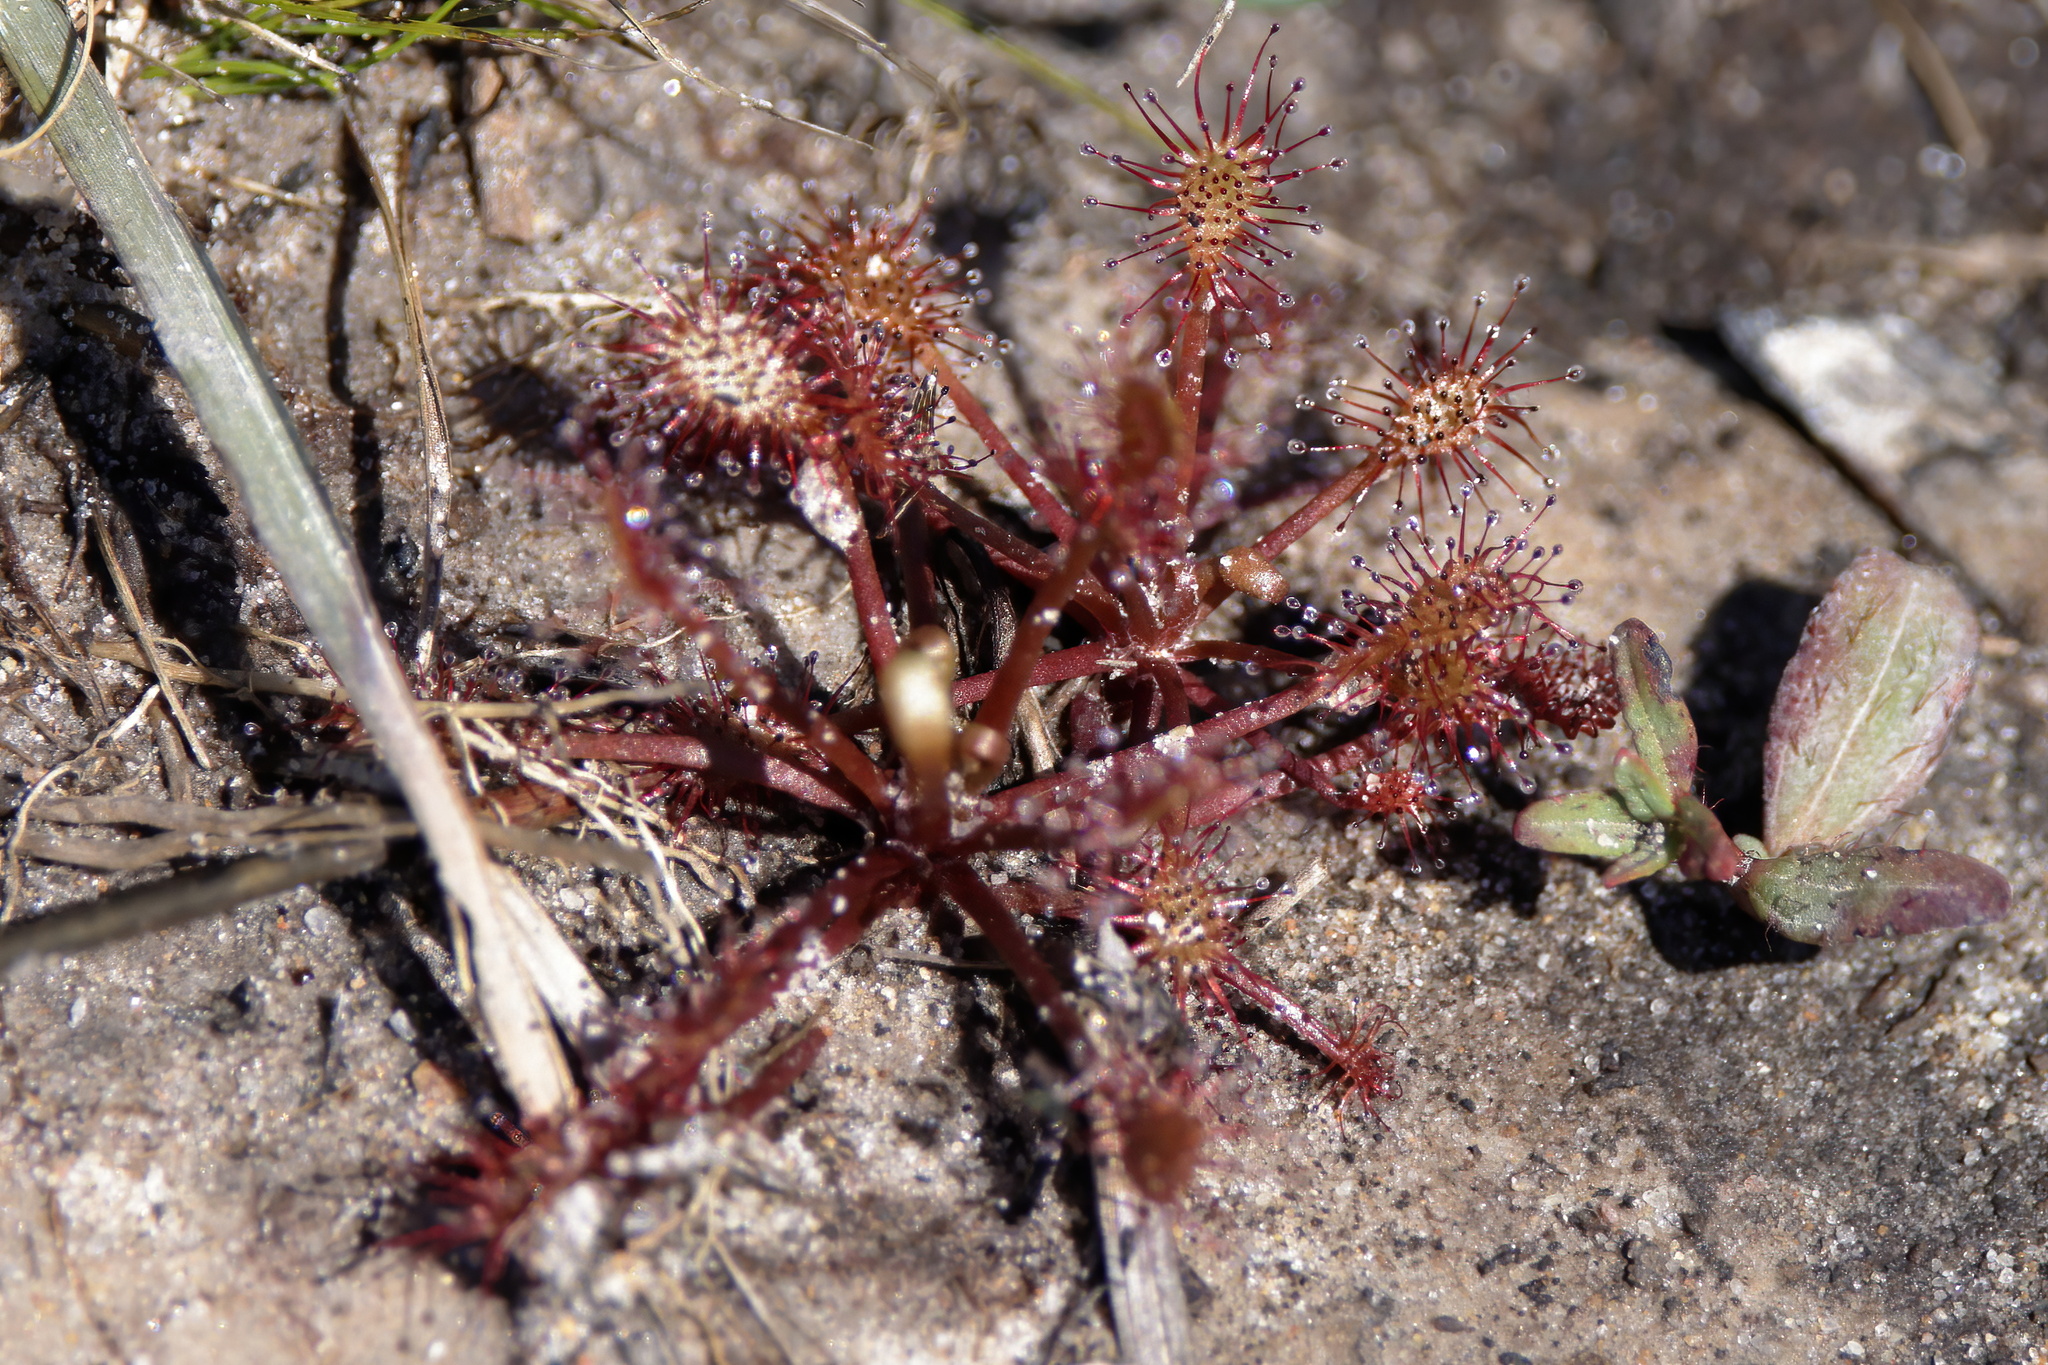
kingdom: Plantae
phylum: Tracheophyta
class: Magnoliopsida
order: Caryophyllales
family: Droseraceae
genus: Drosera
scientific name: Drosera intermedia
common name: Oblong-leaved sundew
